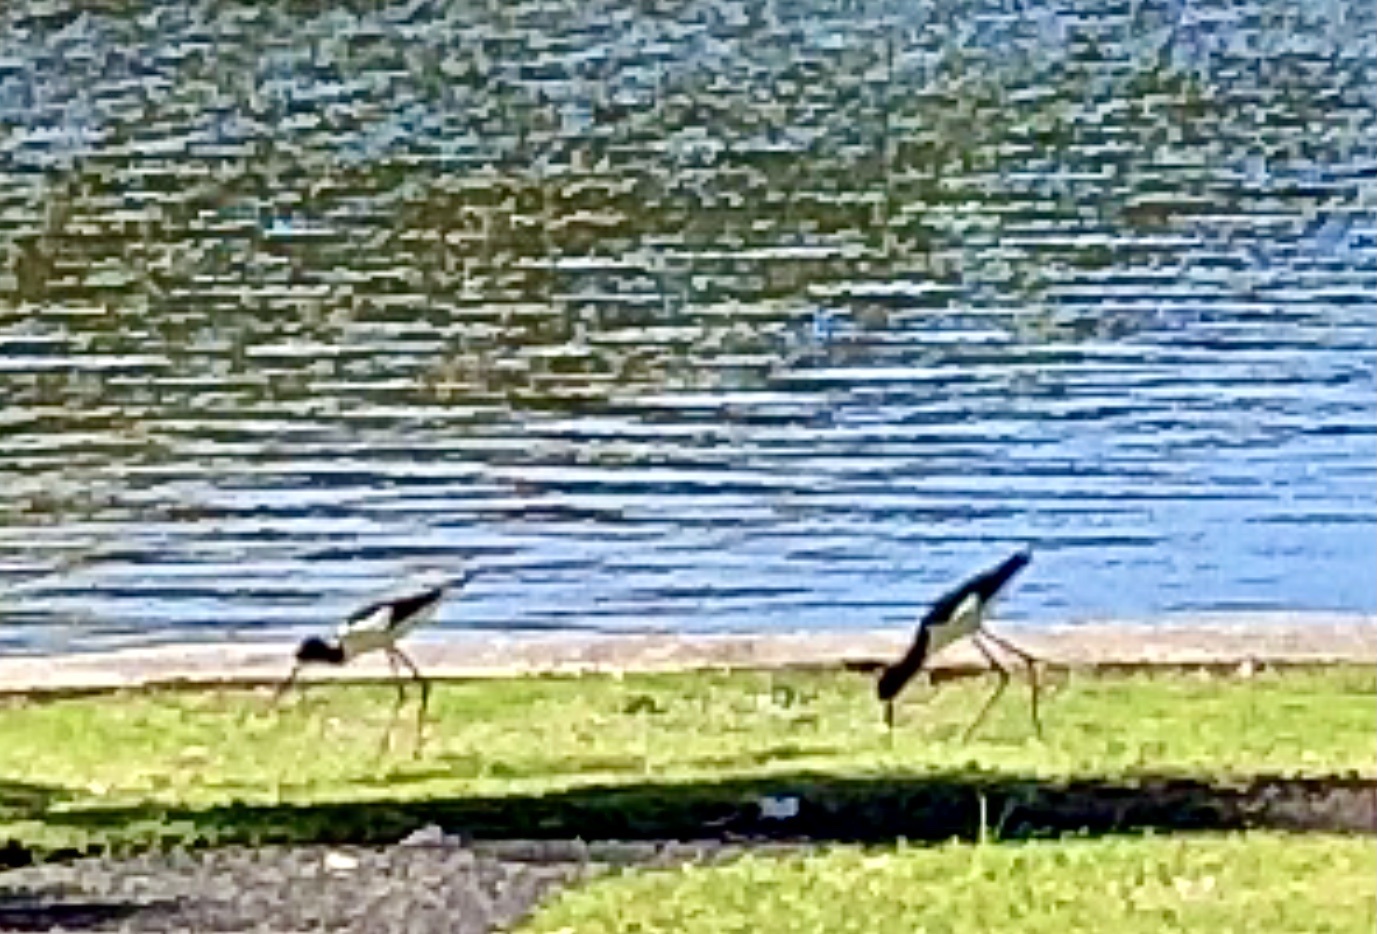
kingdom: Animalia
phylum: Chordata
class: Aves
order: Charadriiformes
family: Recurvirostridae
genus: Himantopus
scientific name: Himantopus mexicanus
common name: Black-necked stilt
